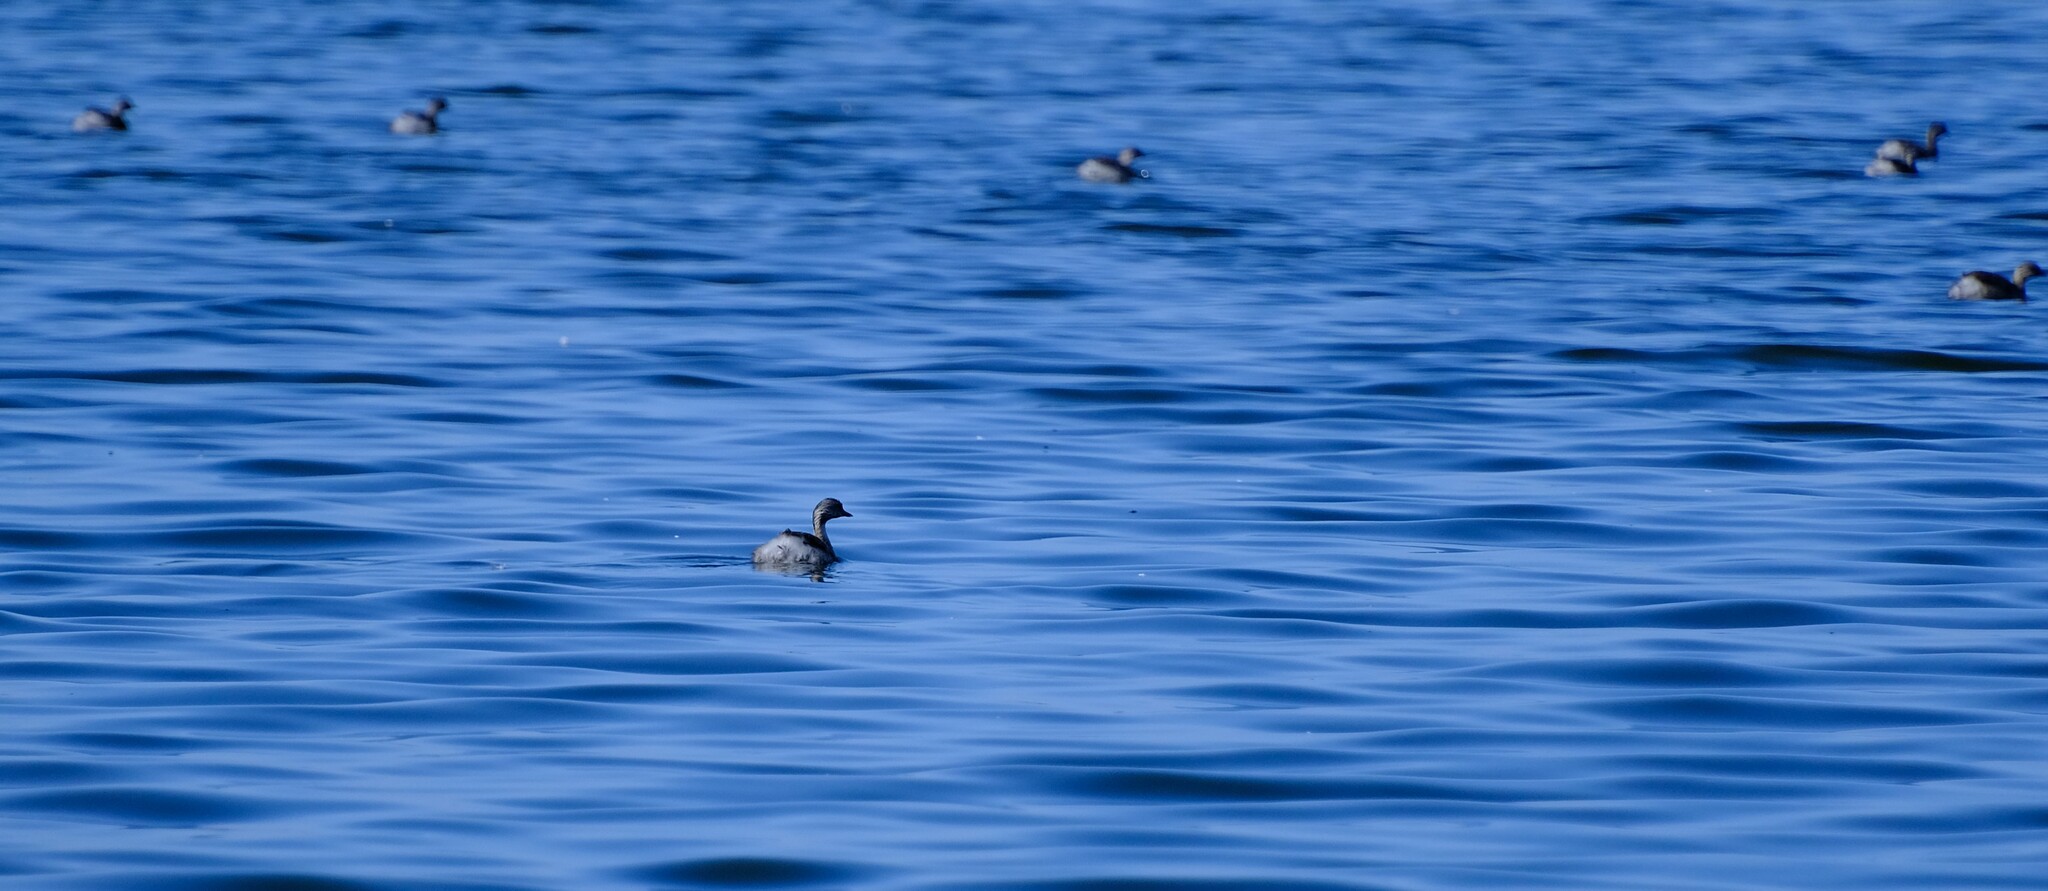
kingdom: Animalia
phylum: Chordata
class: Aves
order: Podicipediformes
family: Podicipedidae
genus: Poliocephalus
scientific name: Poliocephalus poliocephalus
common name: Hoary-headed grebe
